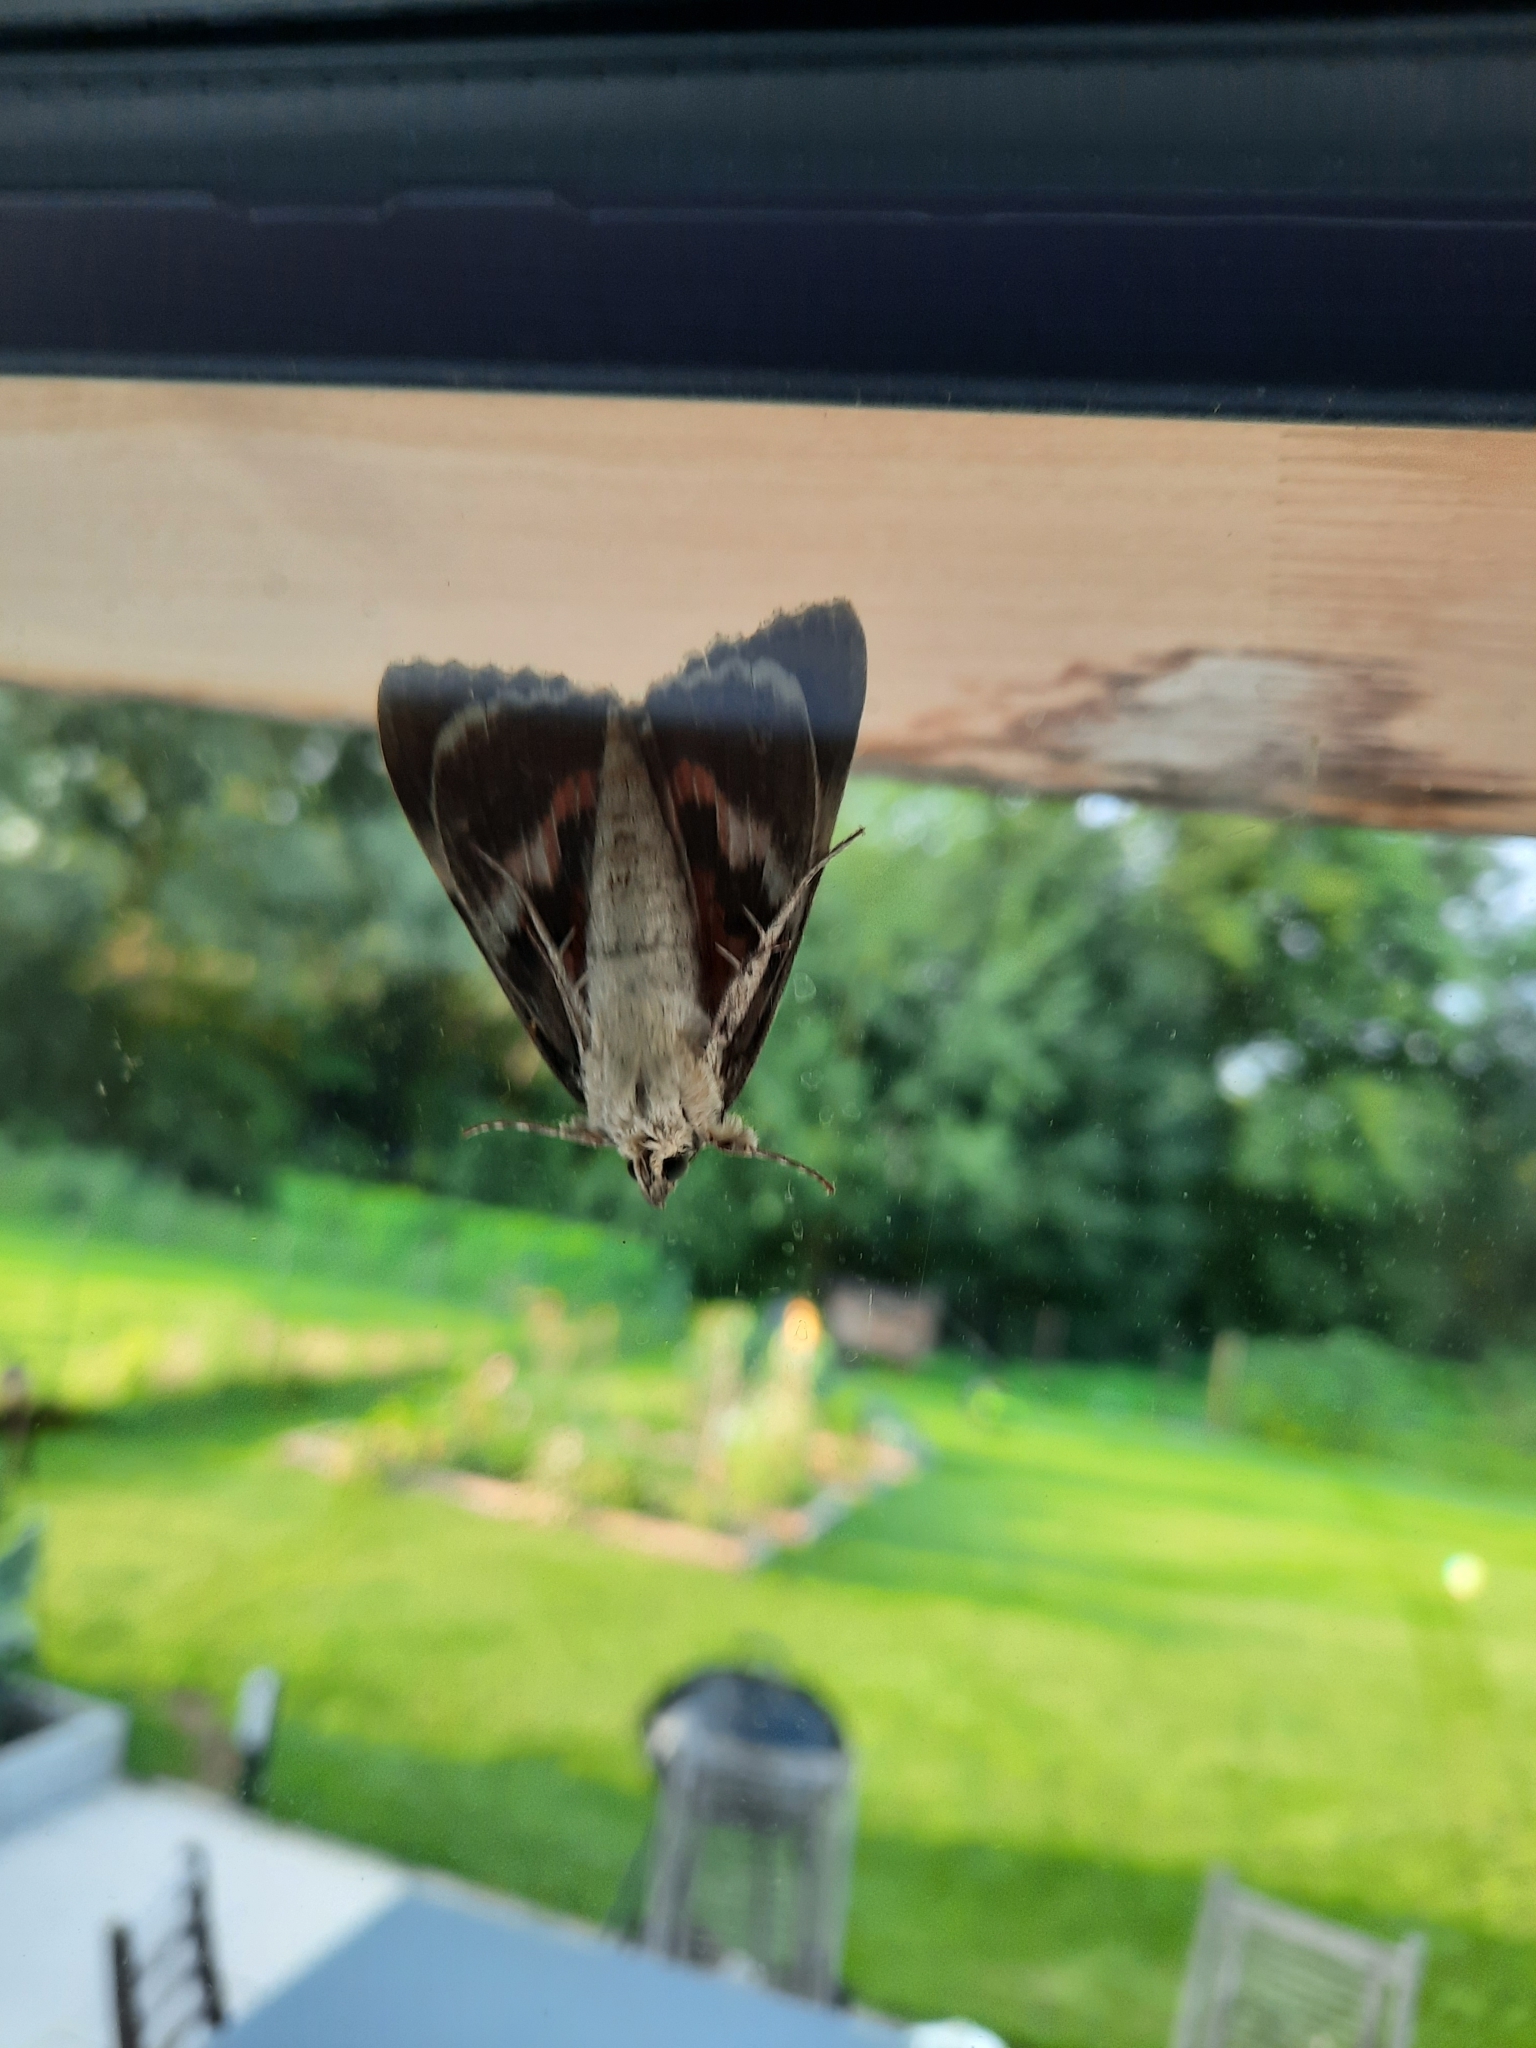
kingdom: Animalia
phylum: Arthropoda
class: Insecta
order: Lepidoptera
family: Erebidae
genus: Catocala
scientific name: Catocala nupta
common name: Red underwing
